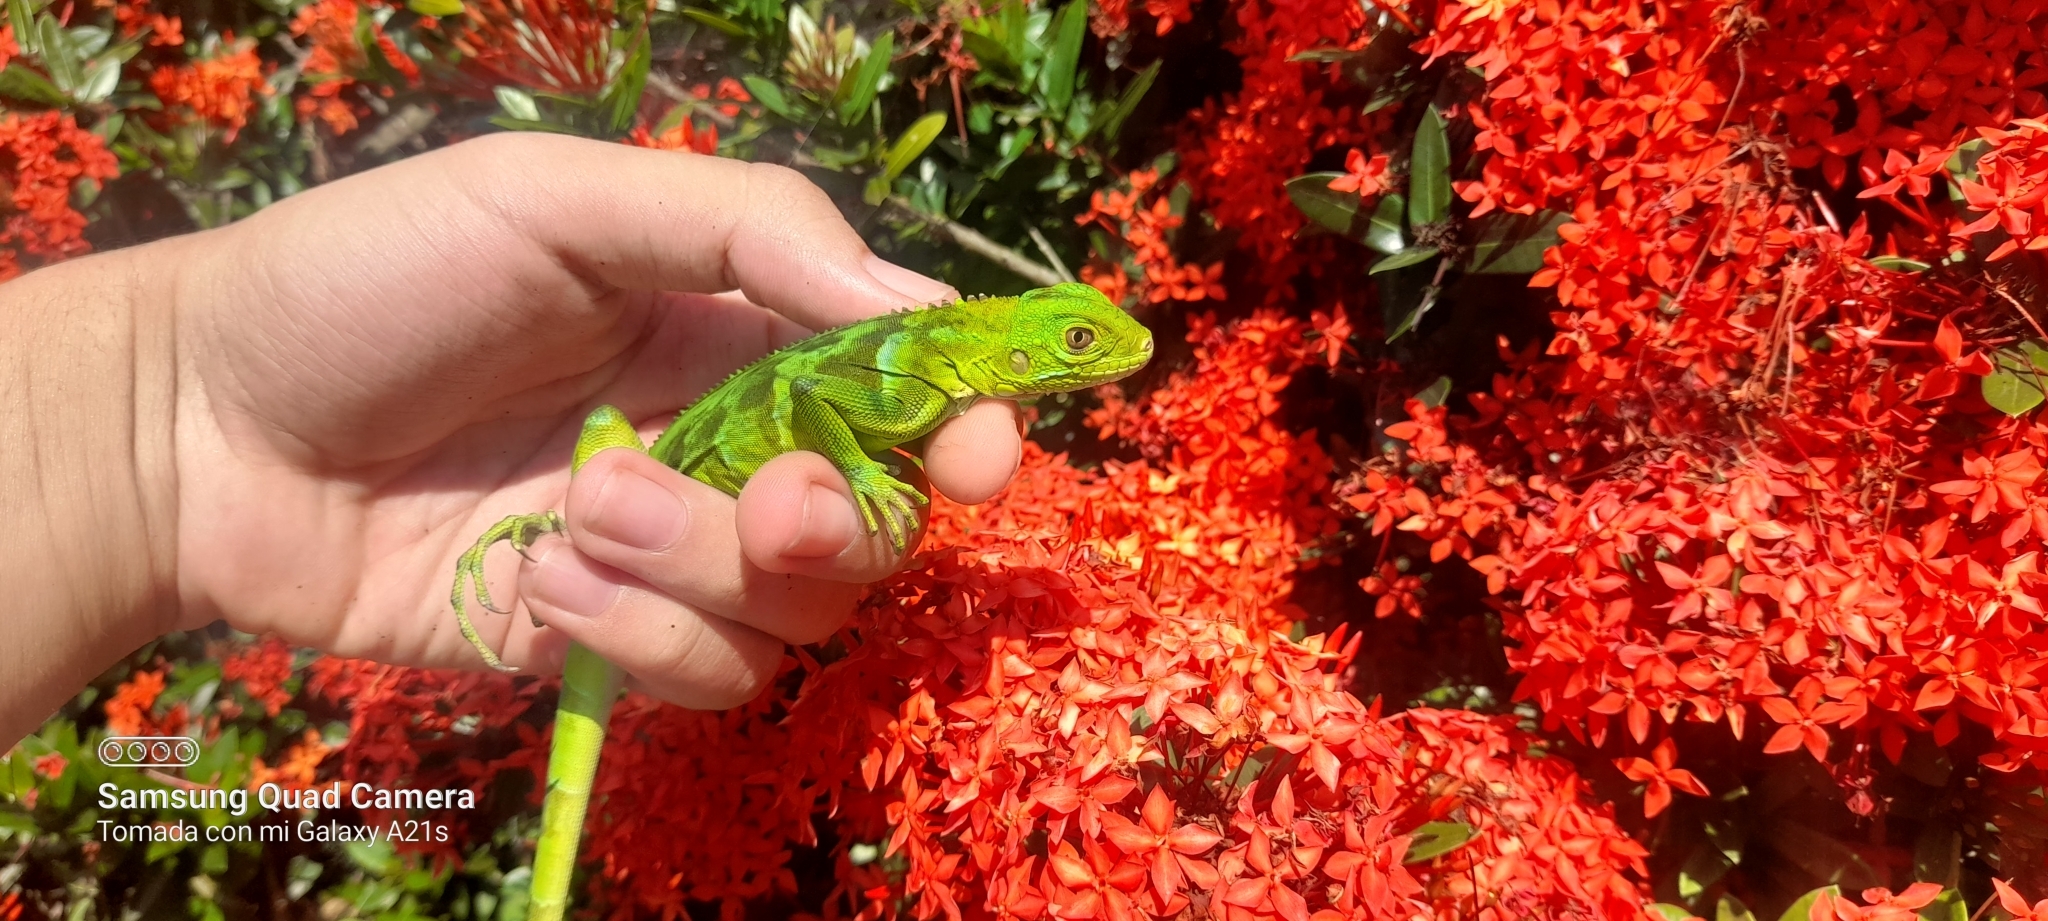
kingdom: Animalia
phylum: Chordata
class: Squamata
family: Iguanidae
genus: Iguana
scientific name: Iguana iguana
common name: Green iguana
